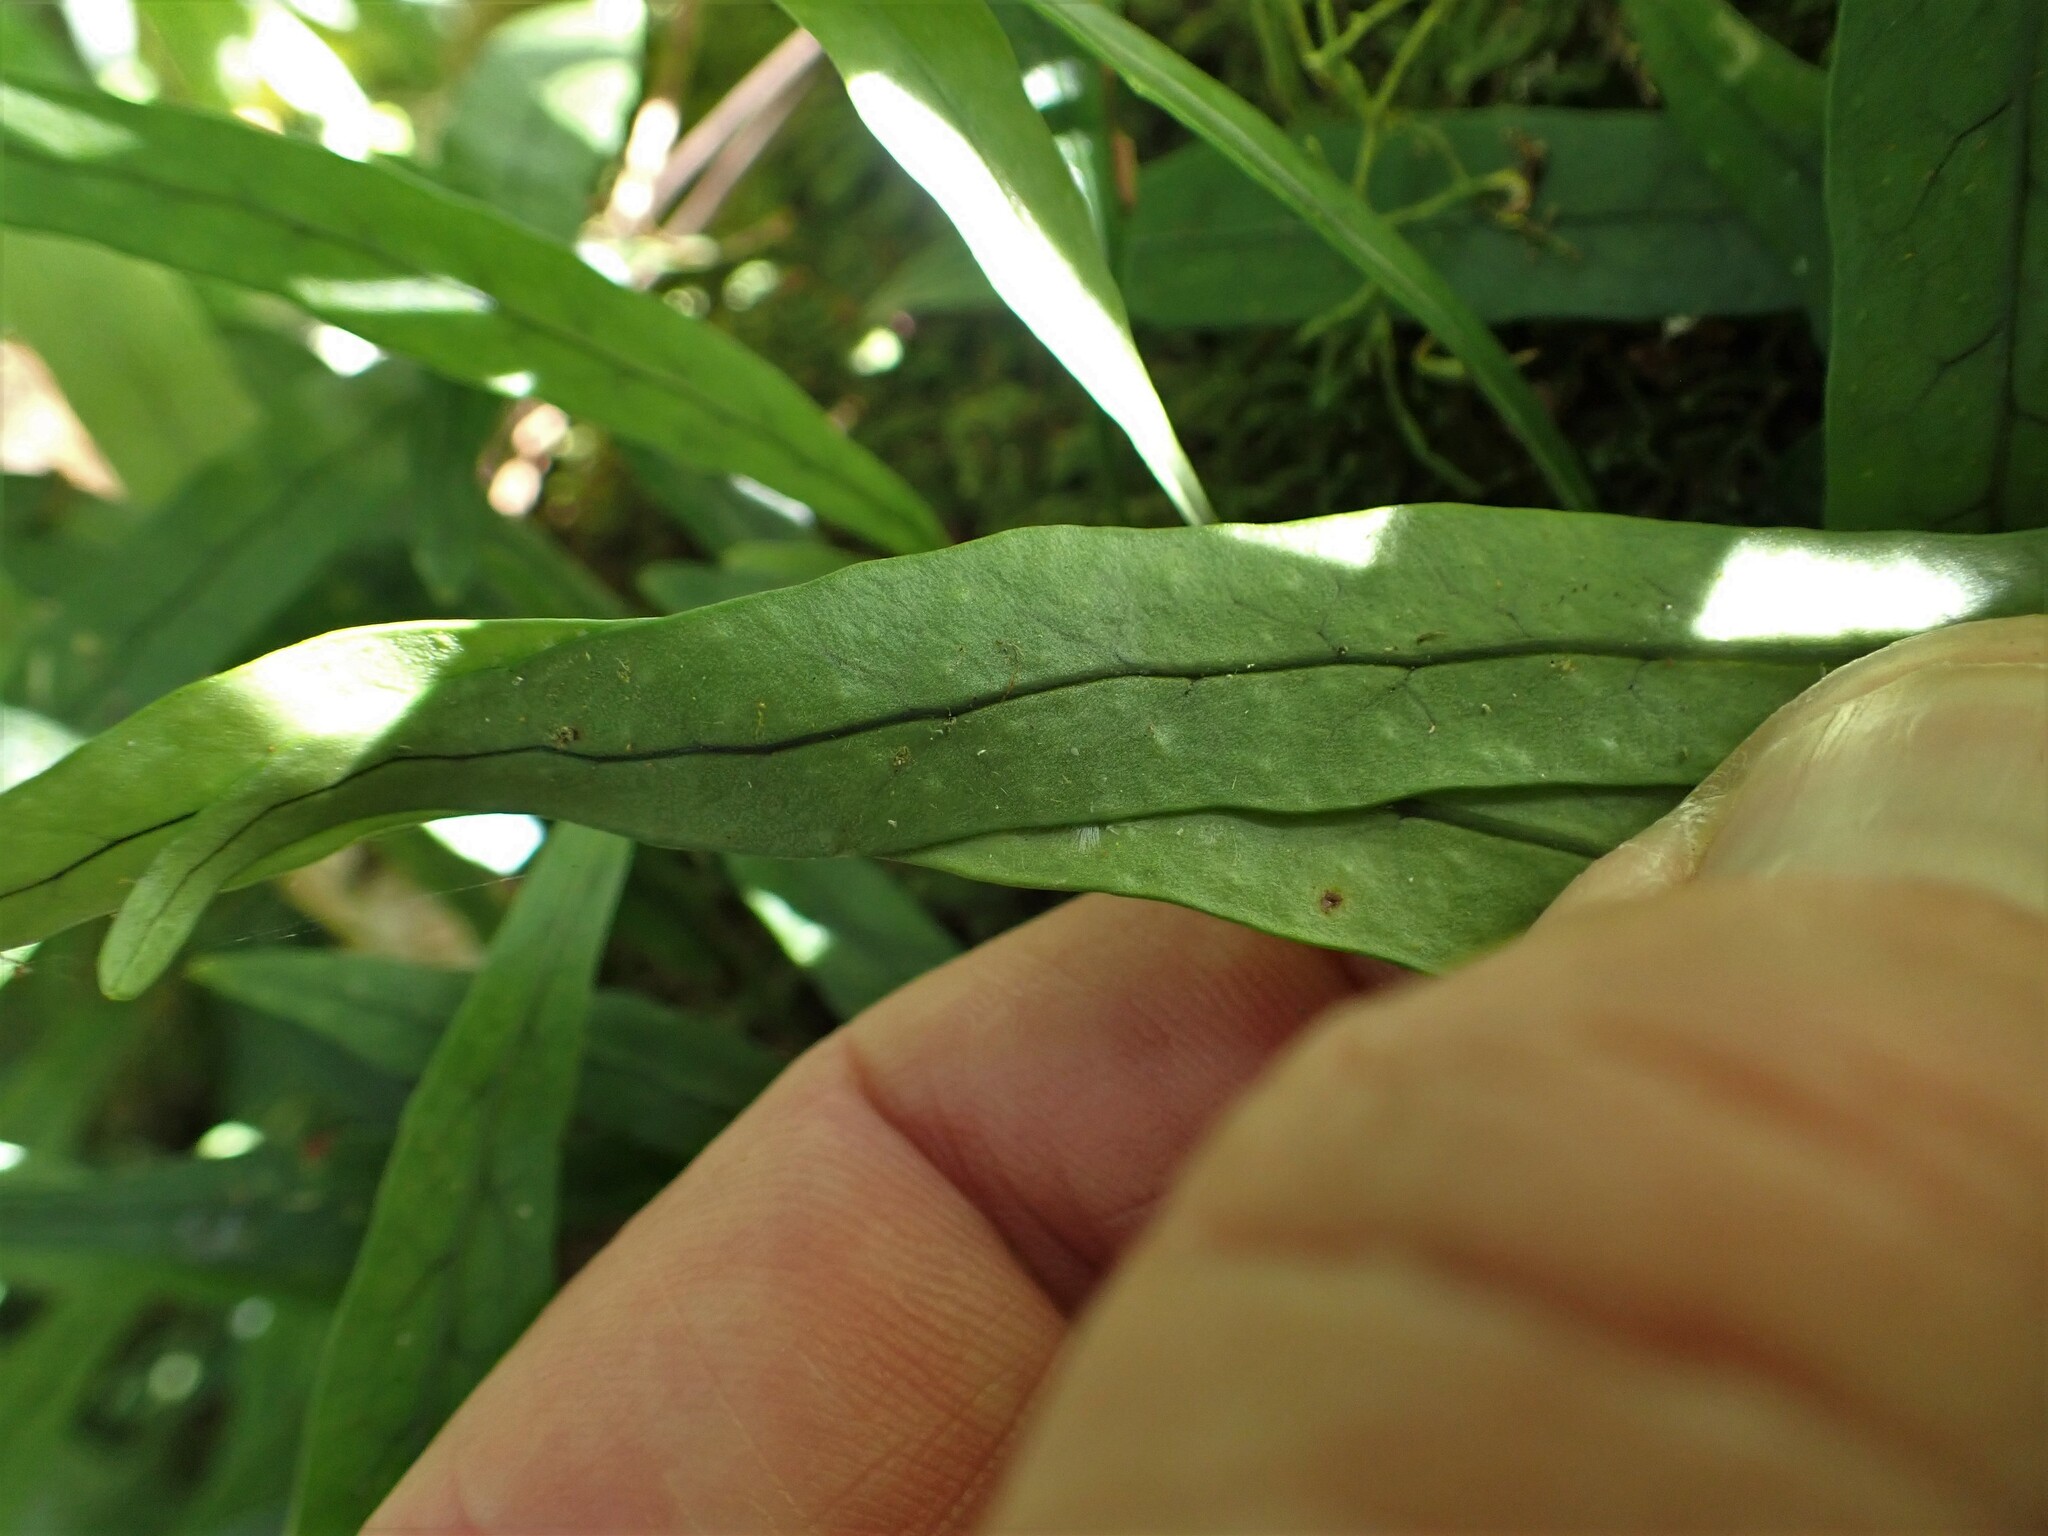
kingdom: Plantae
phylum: Tracheophyta
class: Polypodiopsida
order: Polypodiales
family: Polypodiaceae
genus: Lecanopteris
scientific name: Lecanopteris scandens
